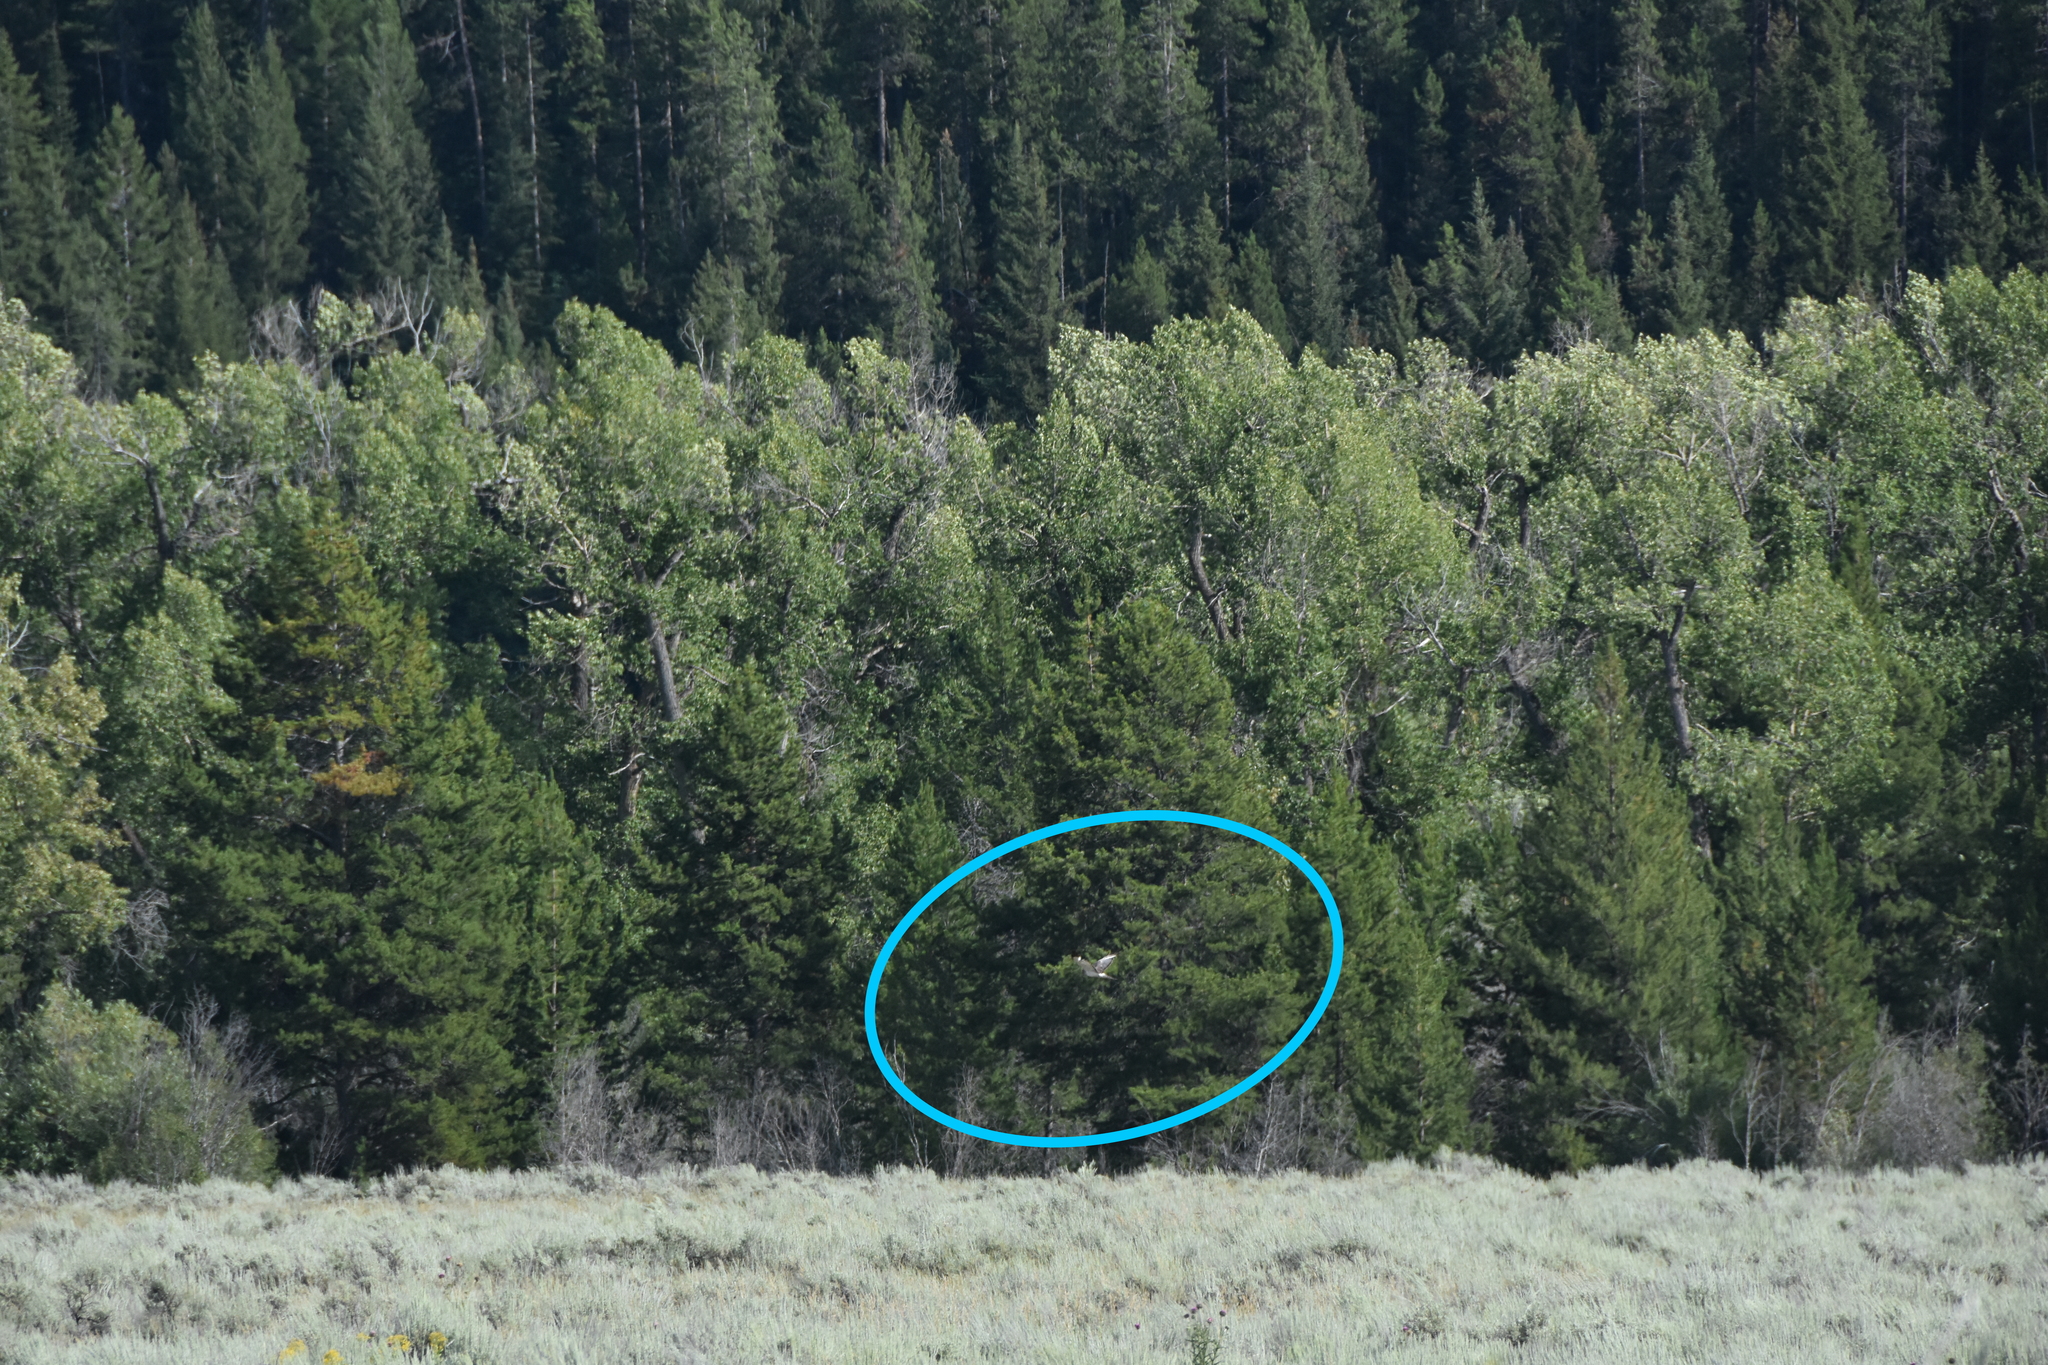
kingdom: Animalia
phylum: Chordata
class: Aves
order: Accipitriformes
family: Accipitridae
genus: Circus
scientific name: Circus cyaneus
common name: Hen harrier
